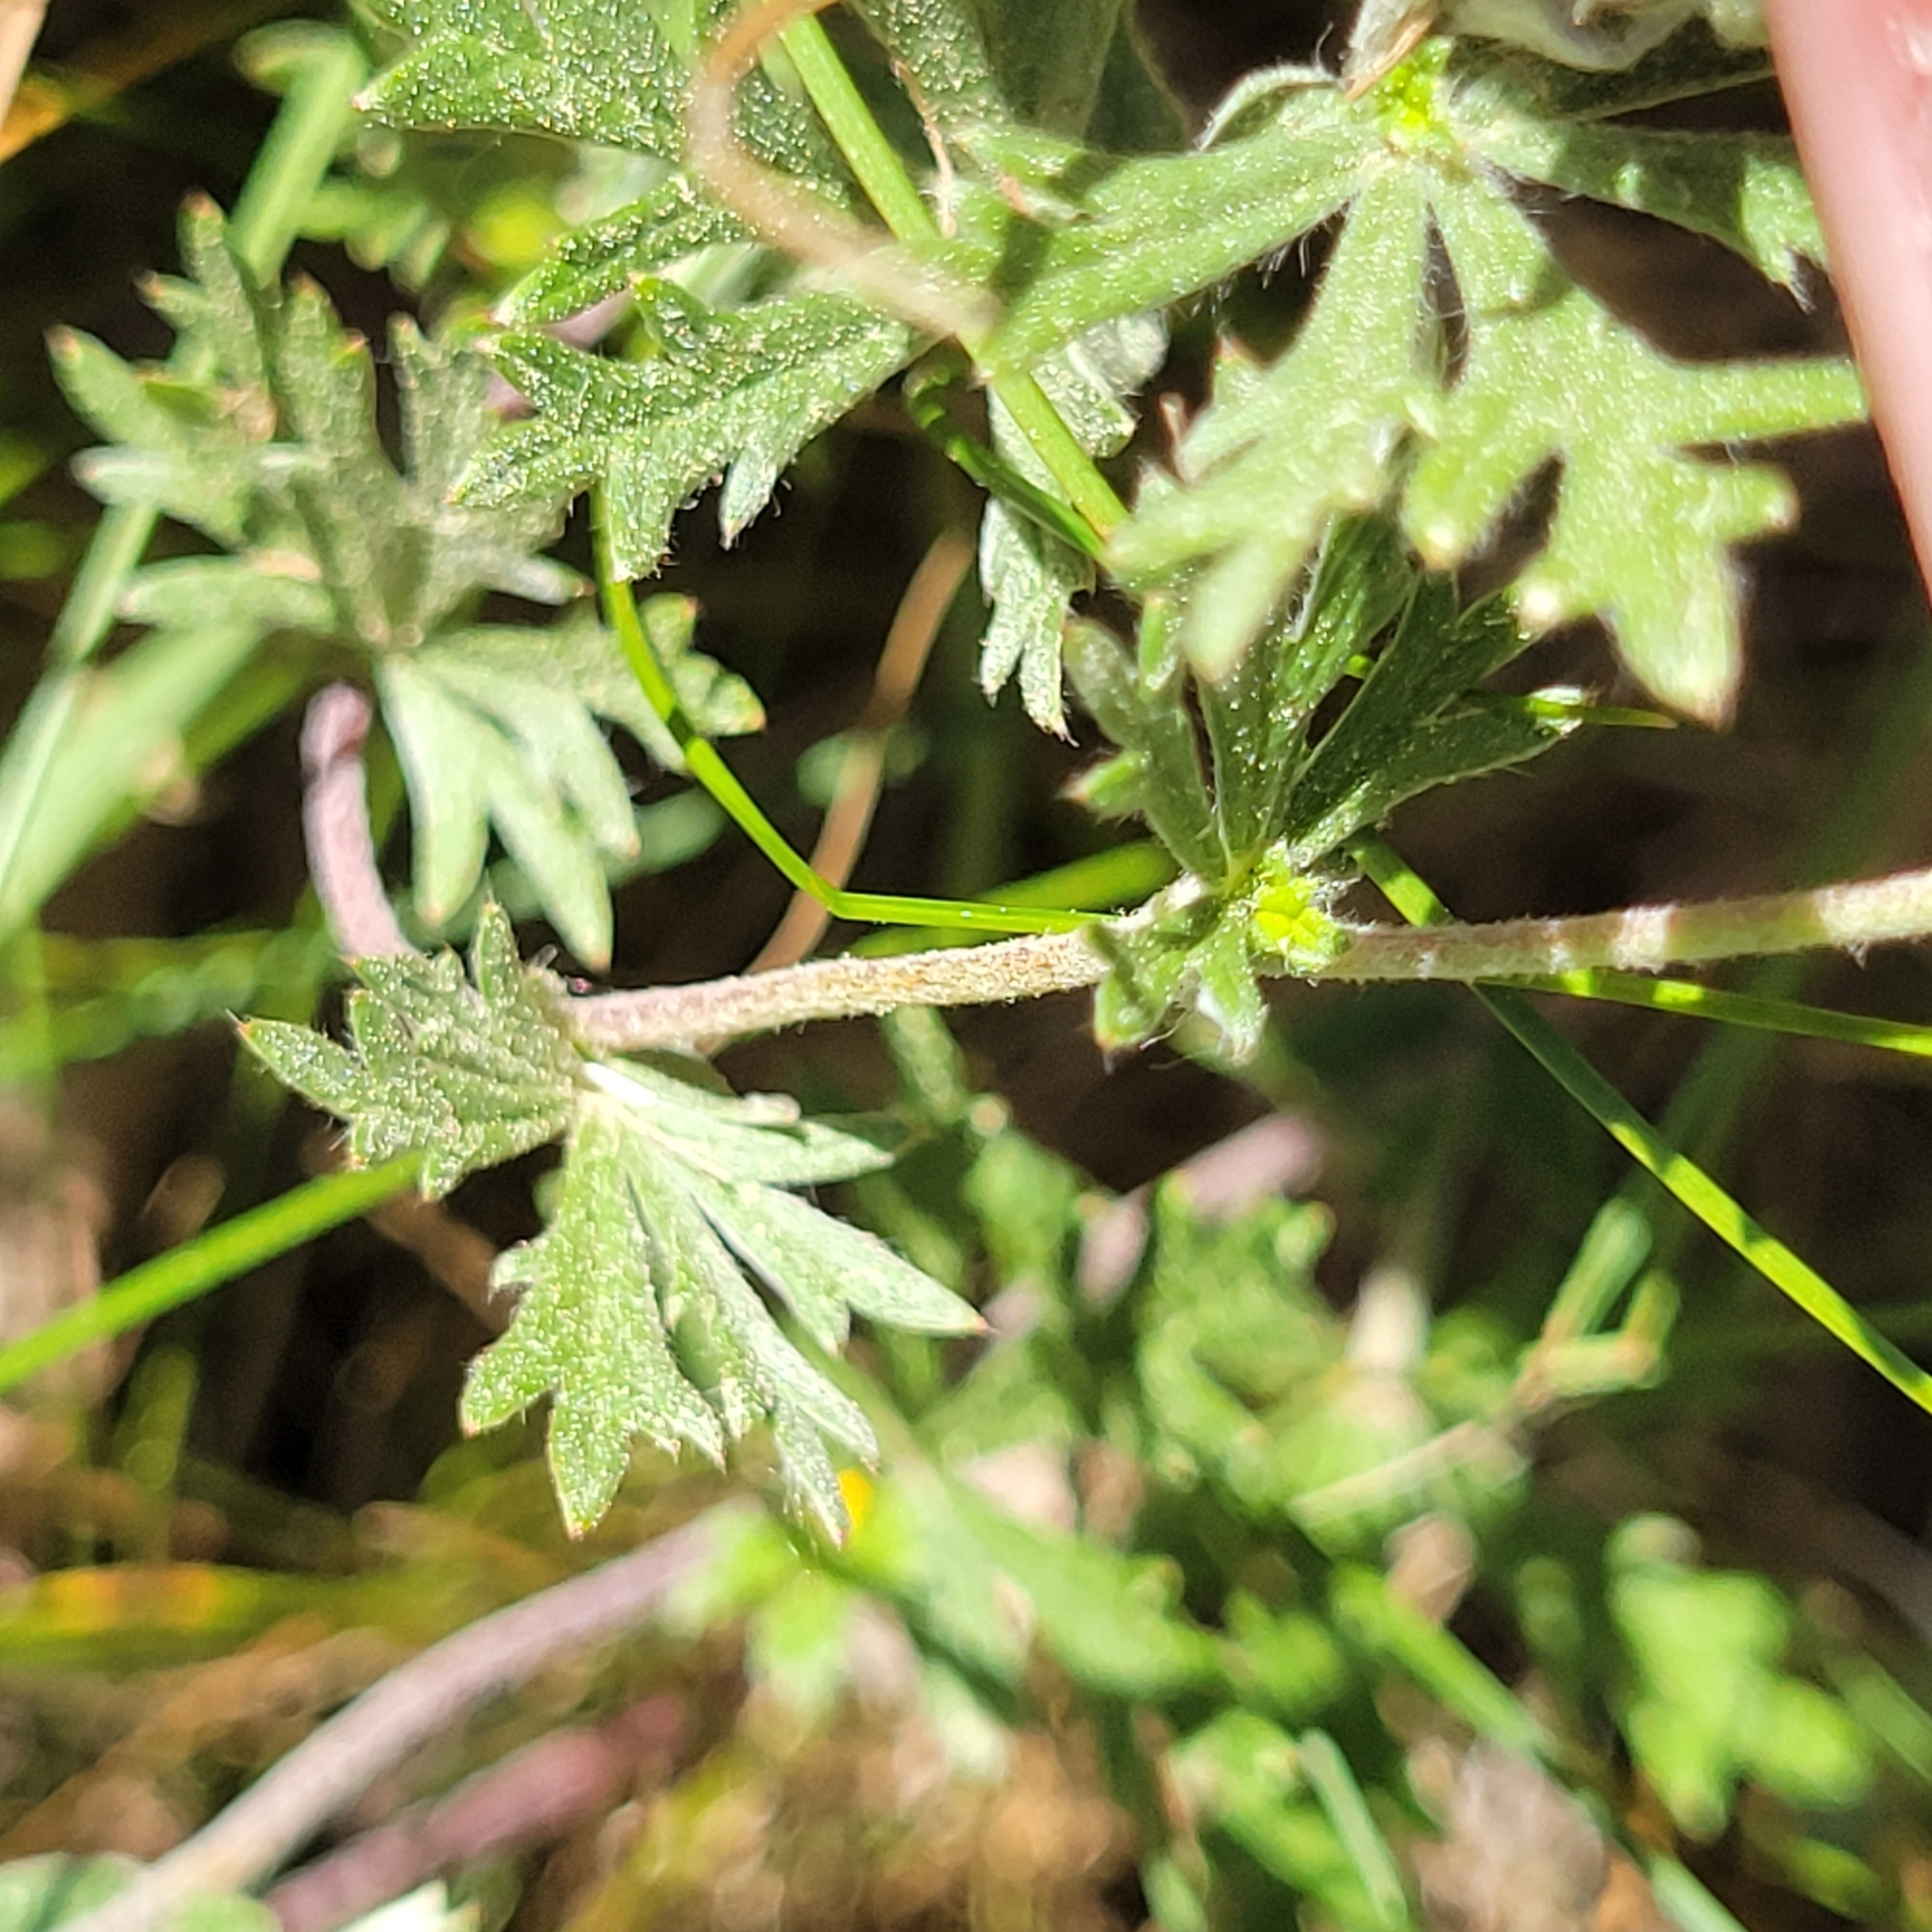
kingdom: Plantae
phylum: Tracheophyta
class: Magnoliopsida
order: Rosales
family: Rosaceae
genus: Potentilla
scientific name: Potentilla argentea
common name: Hoary cinquefoil
